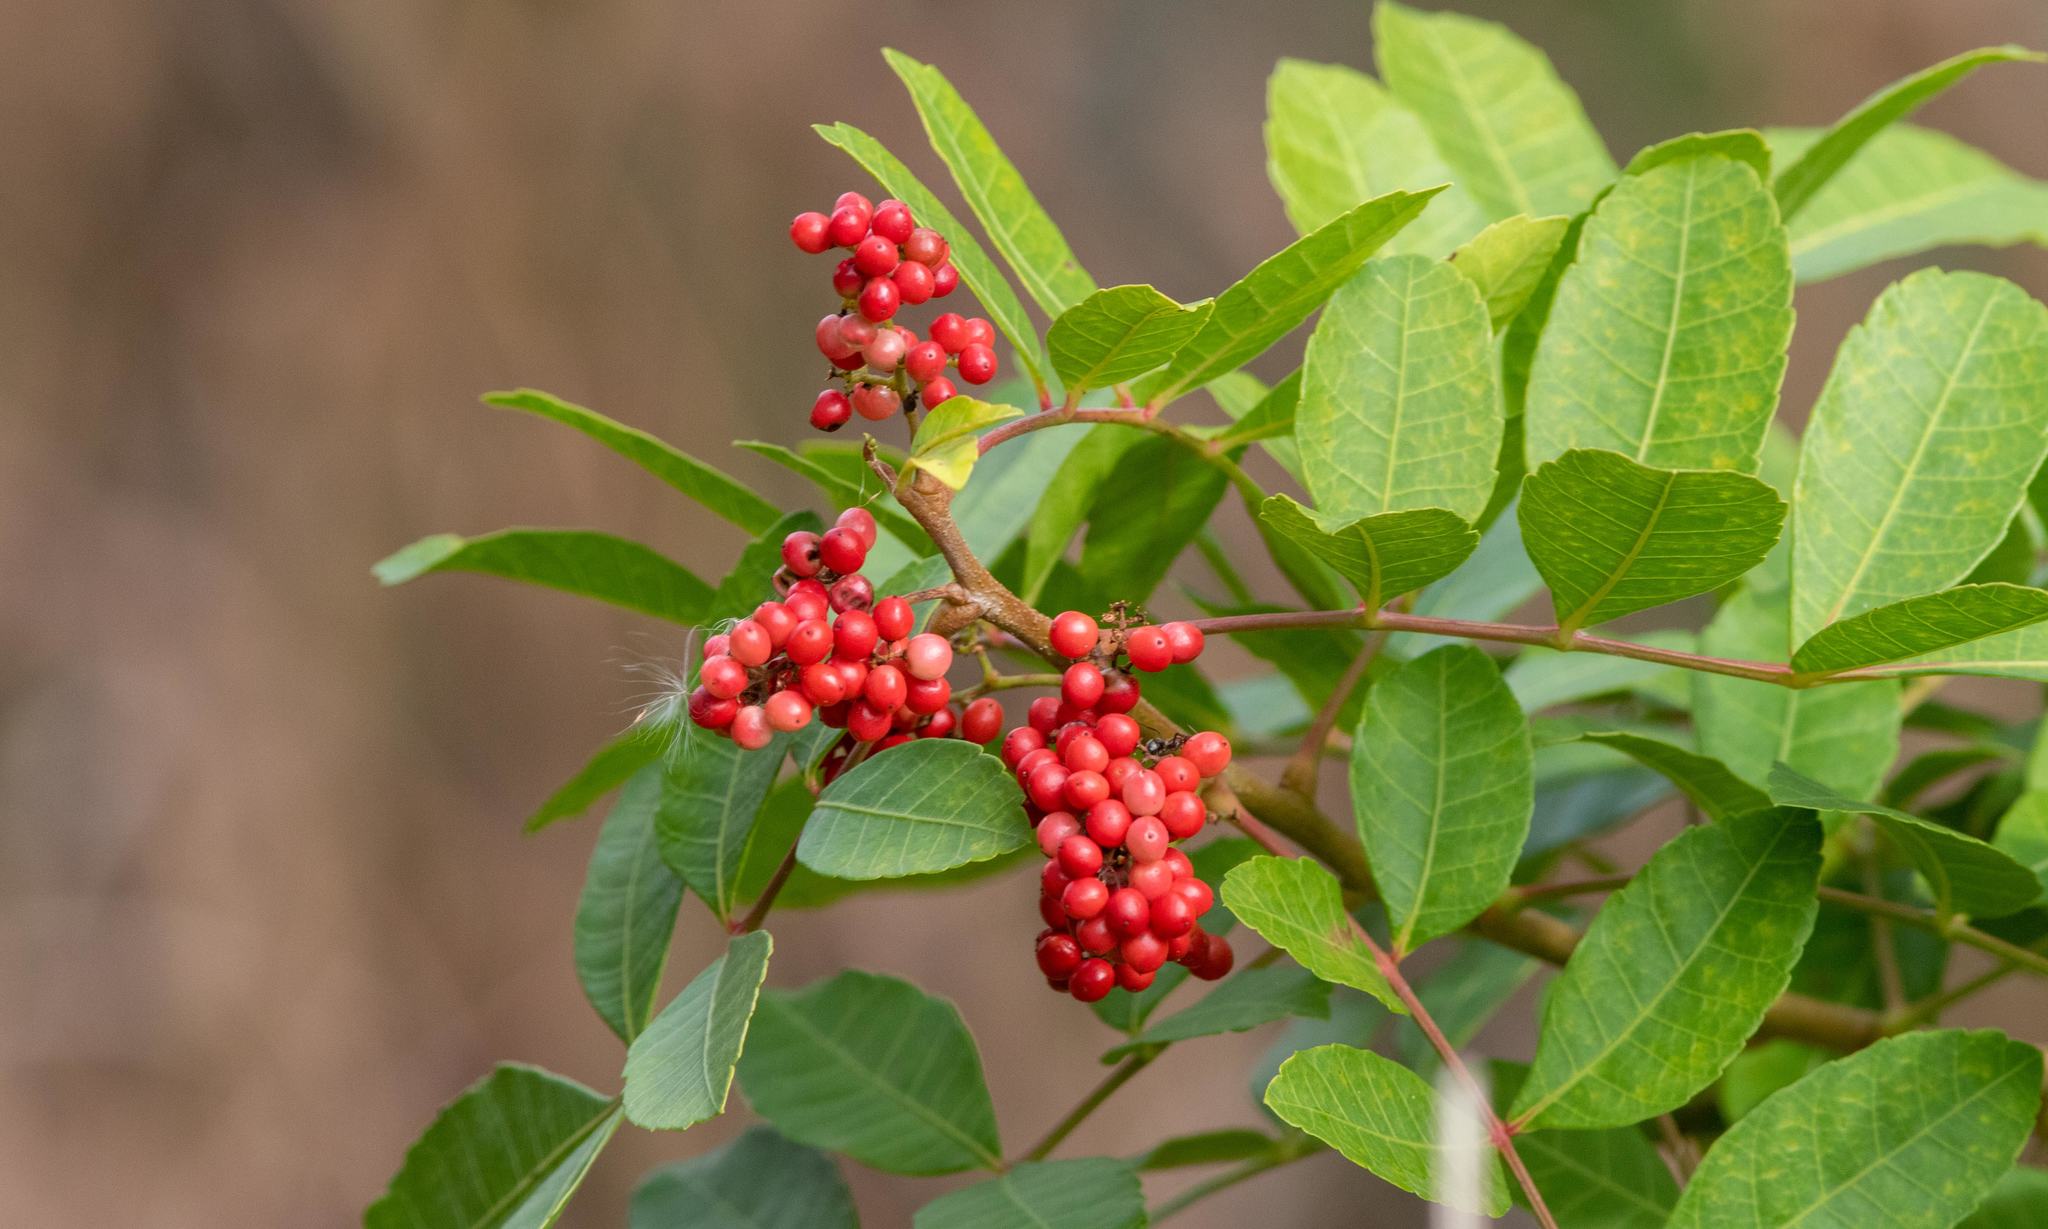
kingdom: Plantae
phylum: Tracheophyta
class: Magnoliopsida
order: Sapindales
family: Anacardiaceae
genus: Schinus
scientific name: Schinus terebinthifolia
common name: Brazilian peppertree
